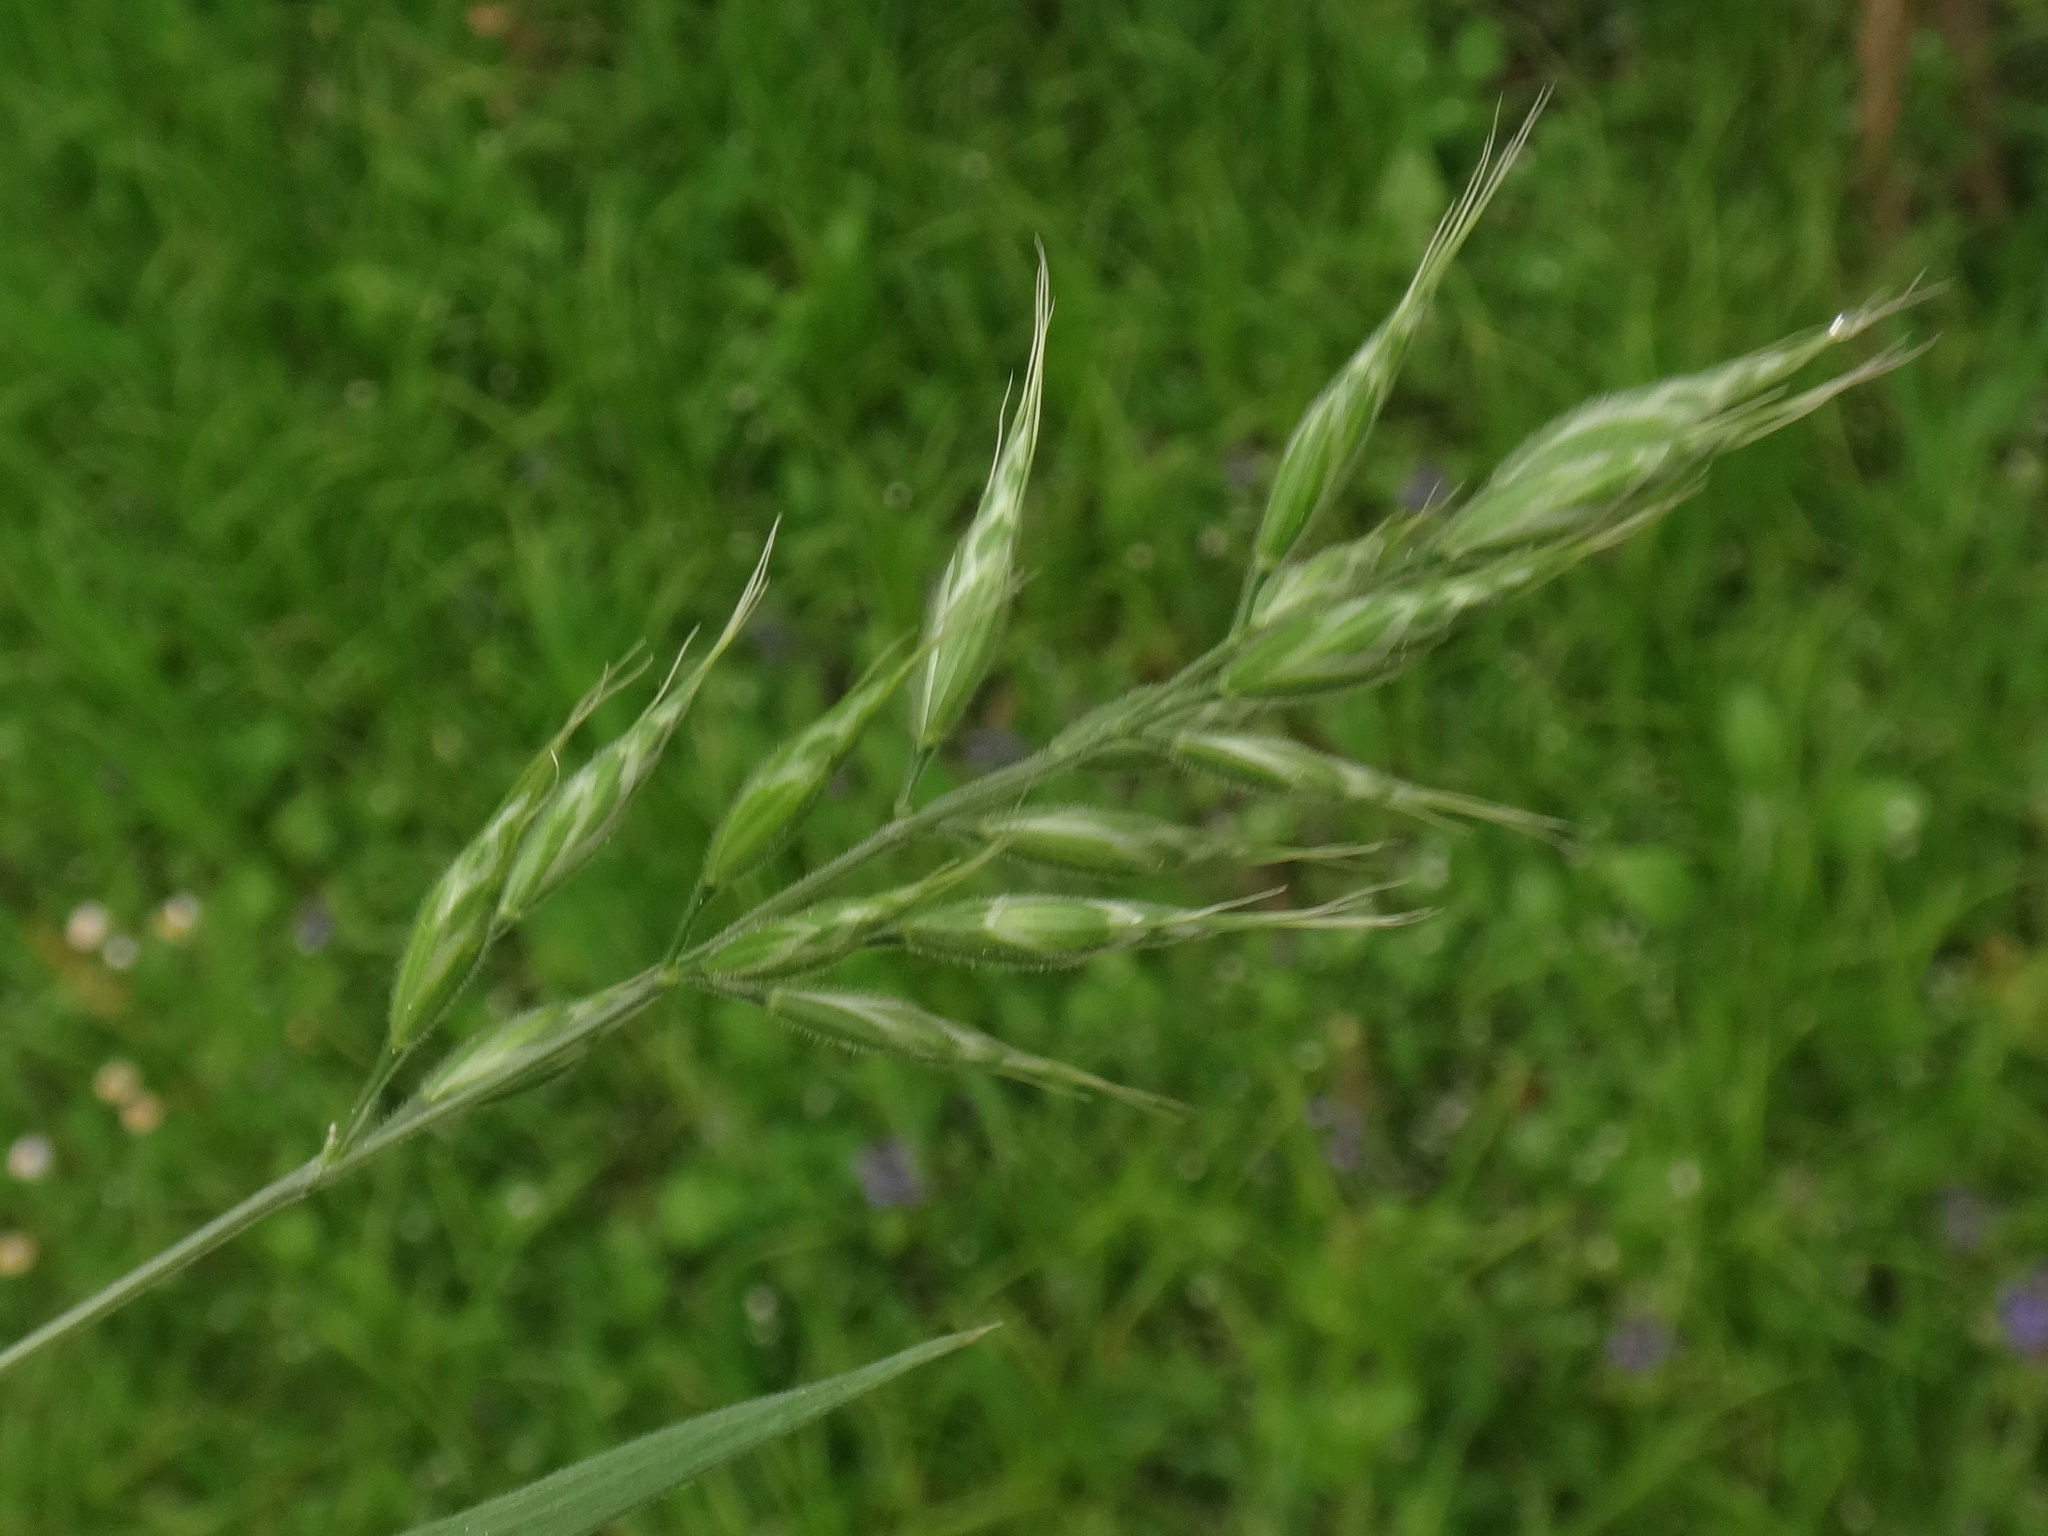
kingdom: Plantae
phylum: Tracheophyta
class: Liliopsida
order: Poales
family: Poaceae
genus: Bromus
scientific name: Bromus hordeaceus
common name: Soft brome
